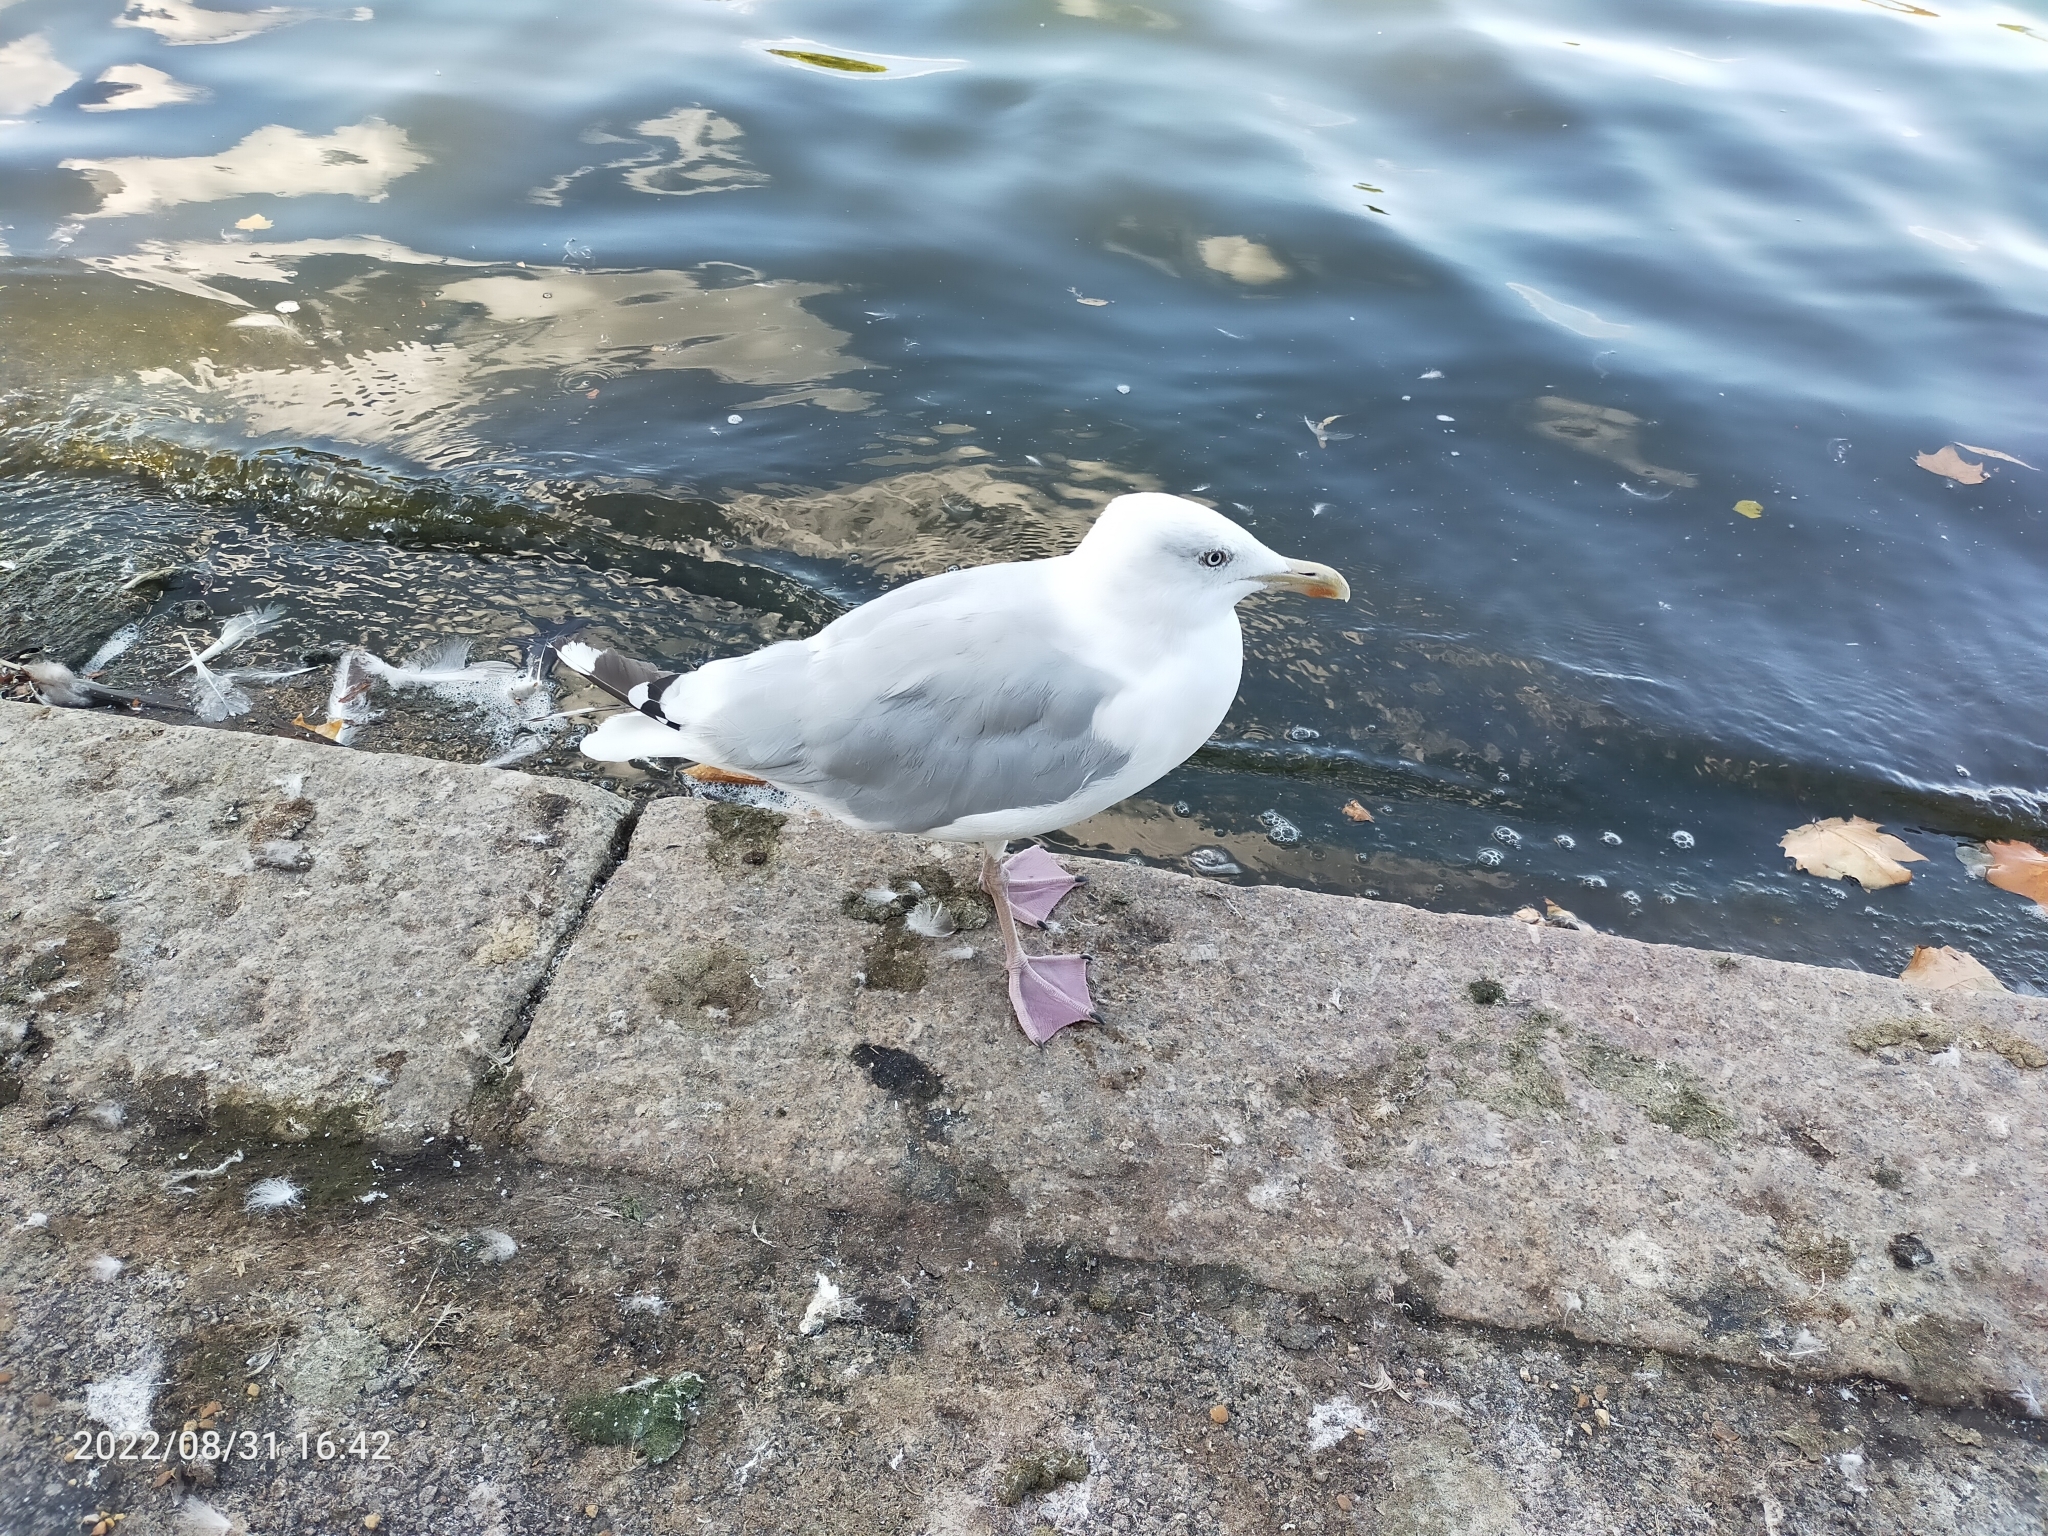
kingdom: Animalia
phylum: Chordata
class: Aves
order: Charadriiformes
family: Laridae
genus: Larus
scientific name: Larus argentatus
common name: Herring gull
